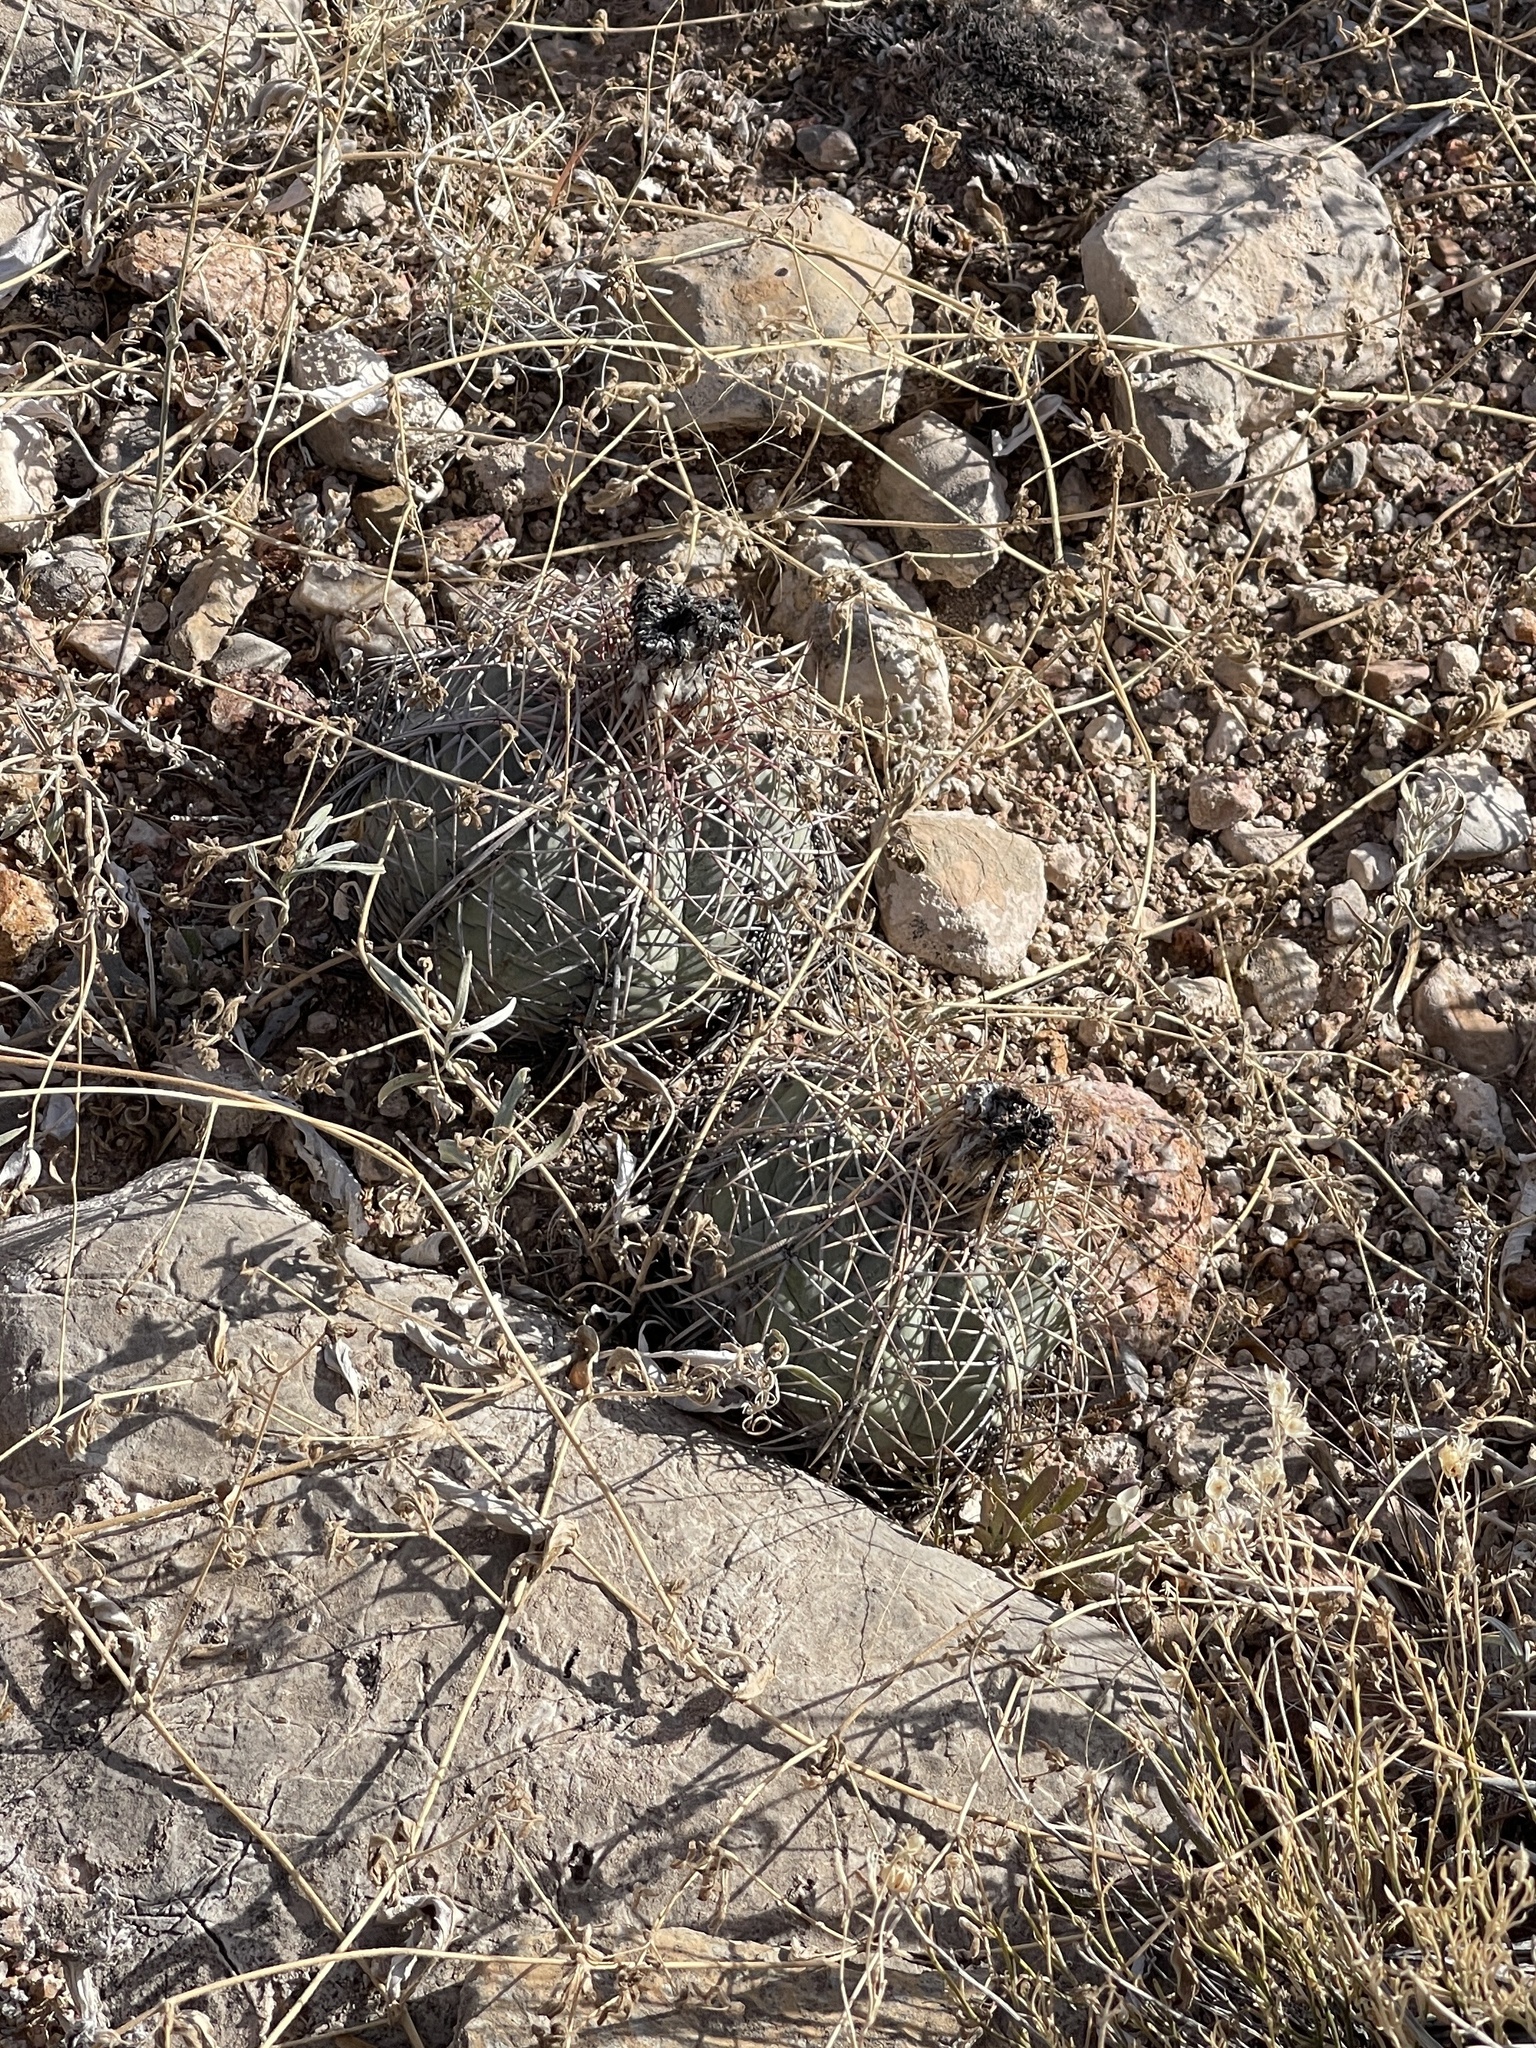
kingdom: Plantae
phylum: Tracheophyta
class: Magnoliopsida
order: Caryophyllales
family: Cactaceae
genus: Echinocactus
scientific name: Echinocactus horizonthalonius
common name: Devilshead
